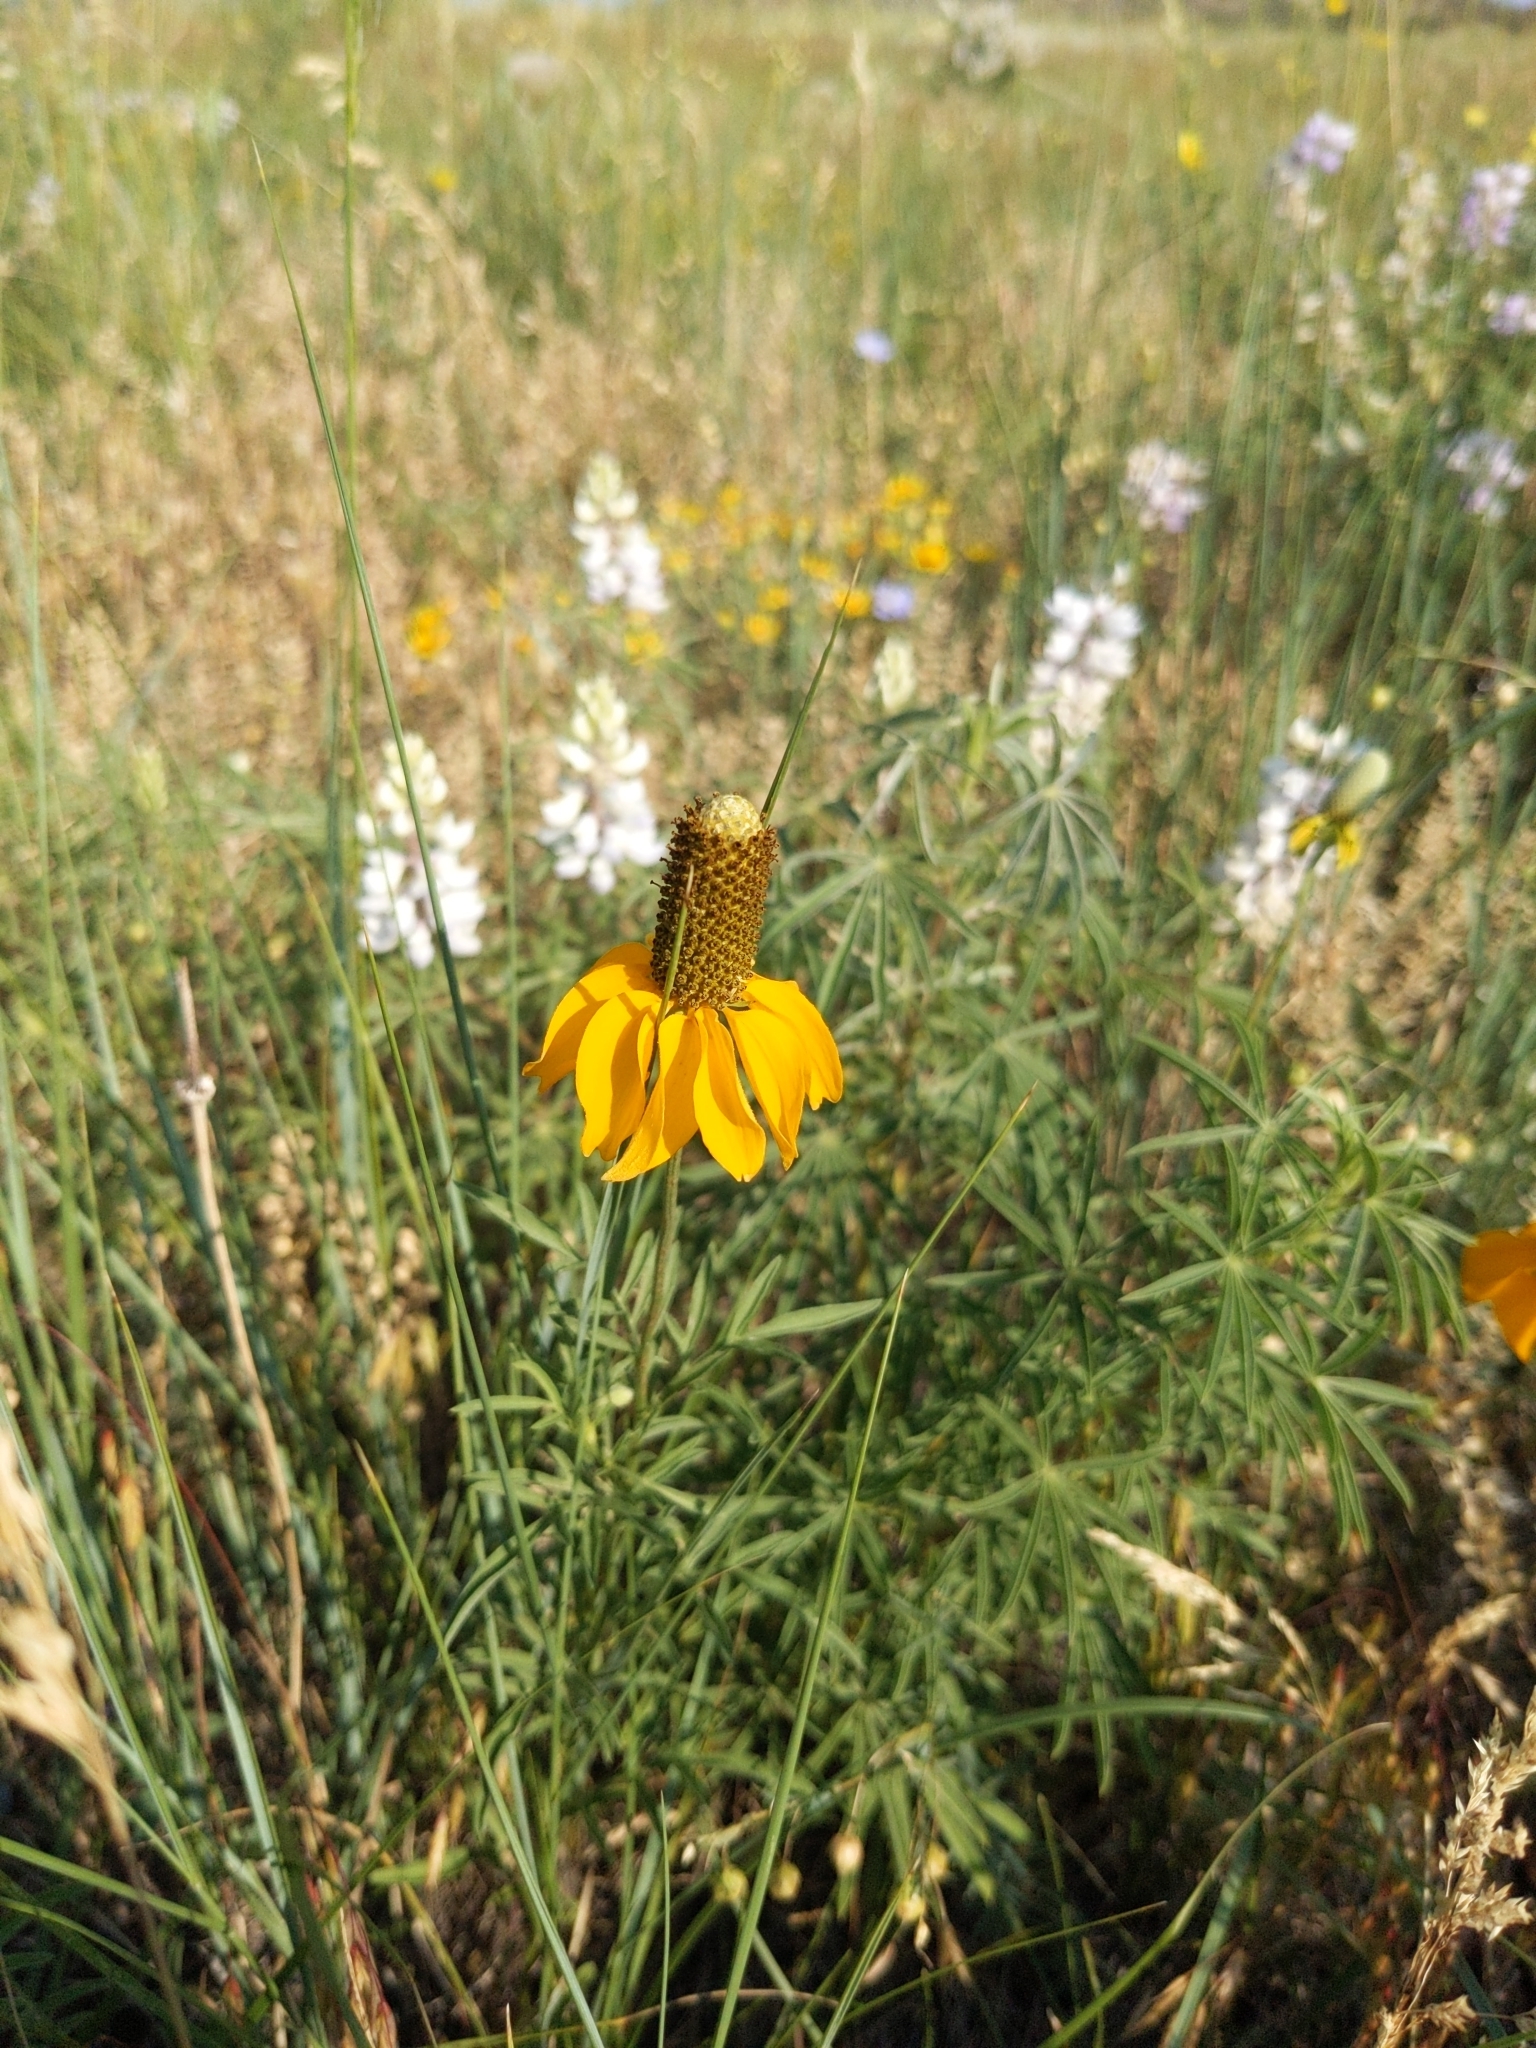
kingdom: Plantae
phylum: Tracheophyta
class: Magnoliopsida
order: Asterales
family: Asteraceae
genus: Ratibida
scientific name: Ratibida columnifera
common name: Prairie coneflower
